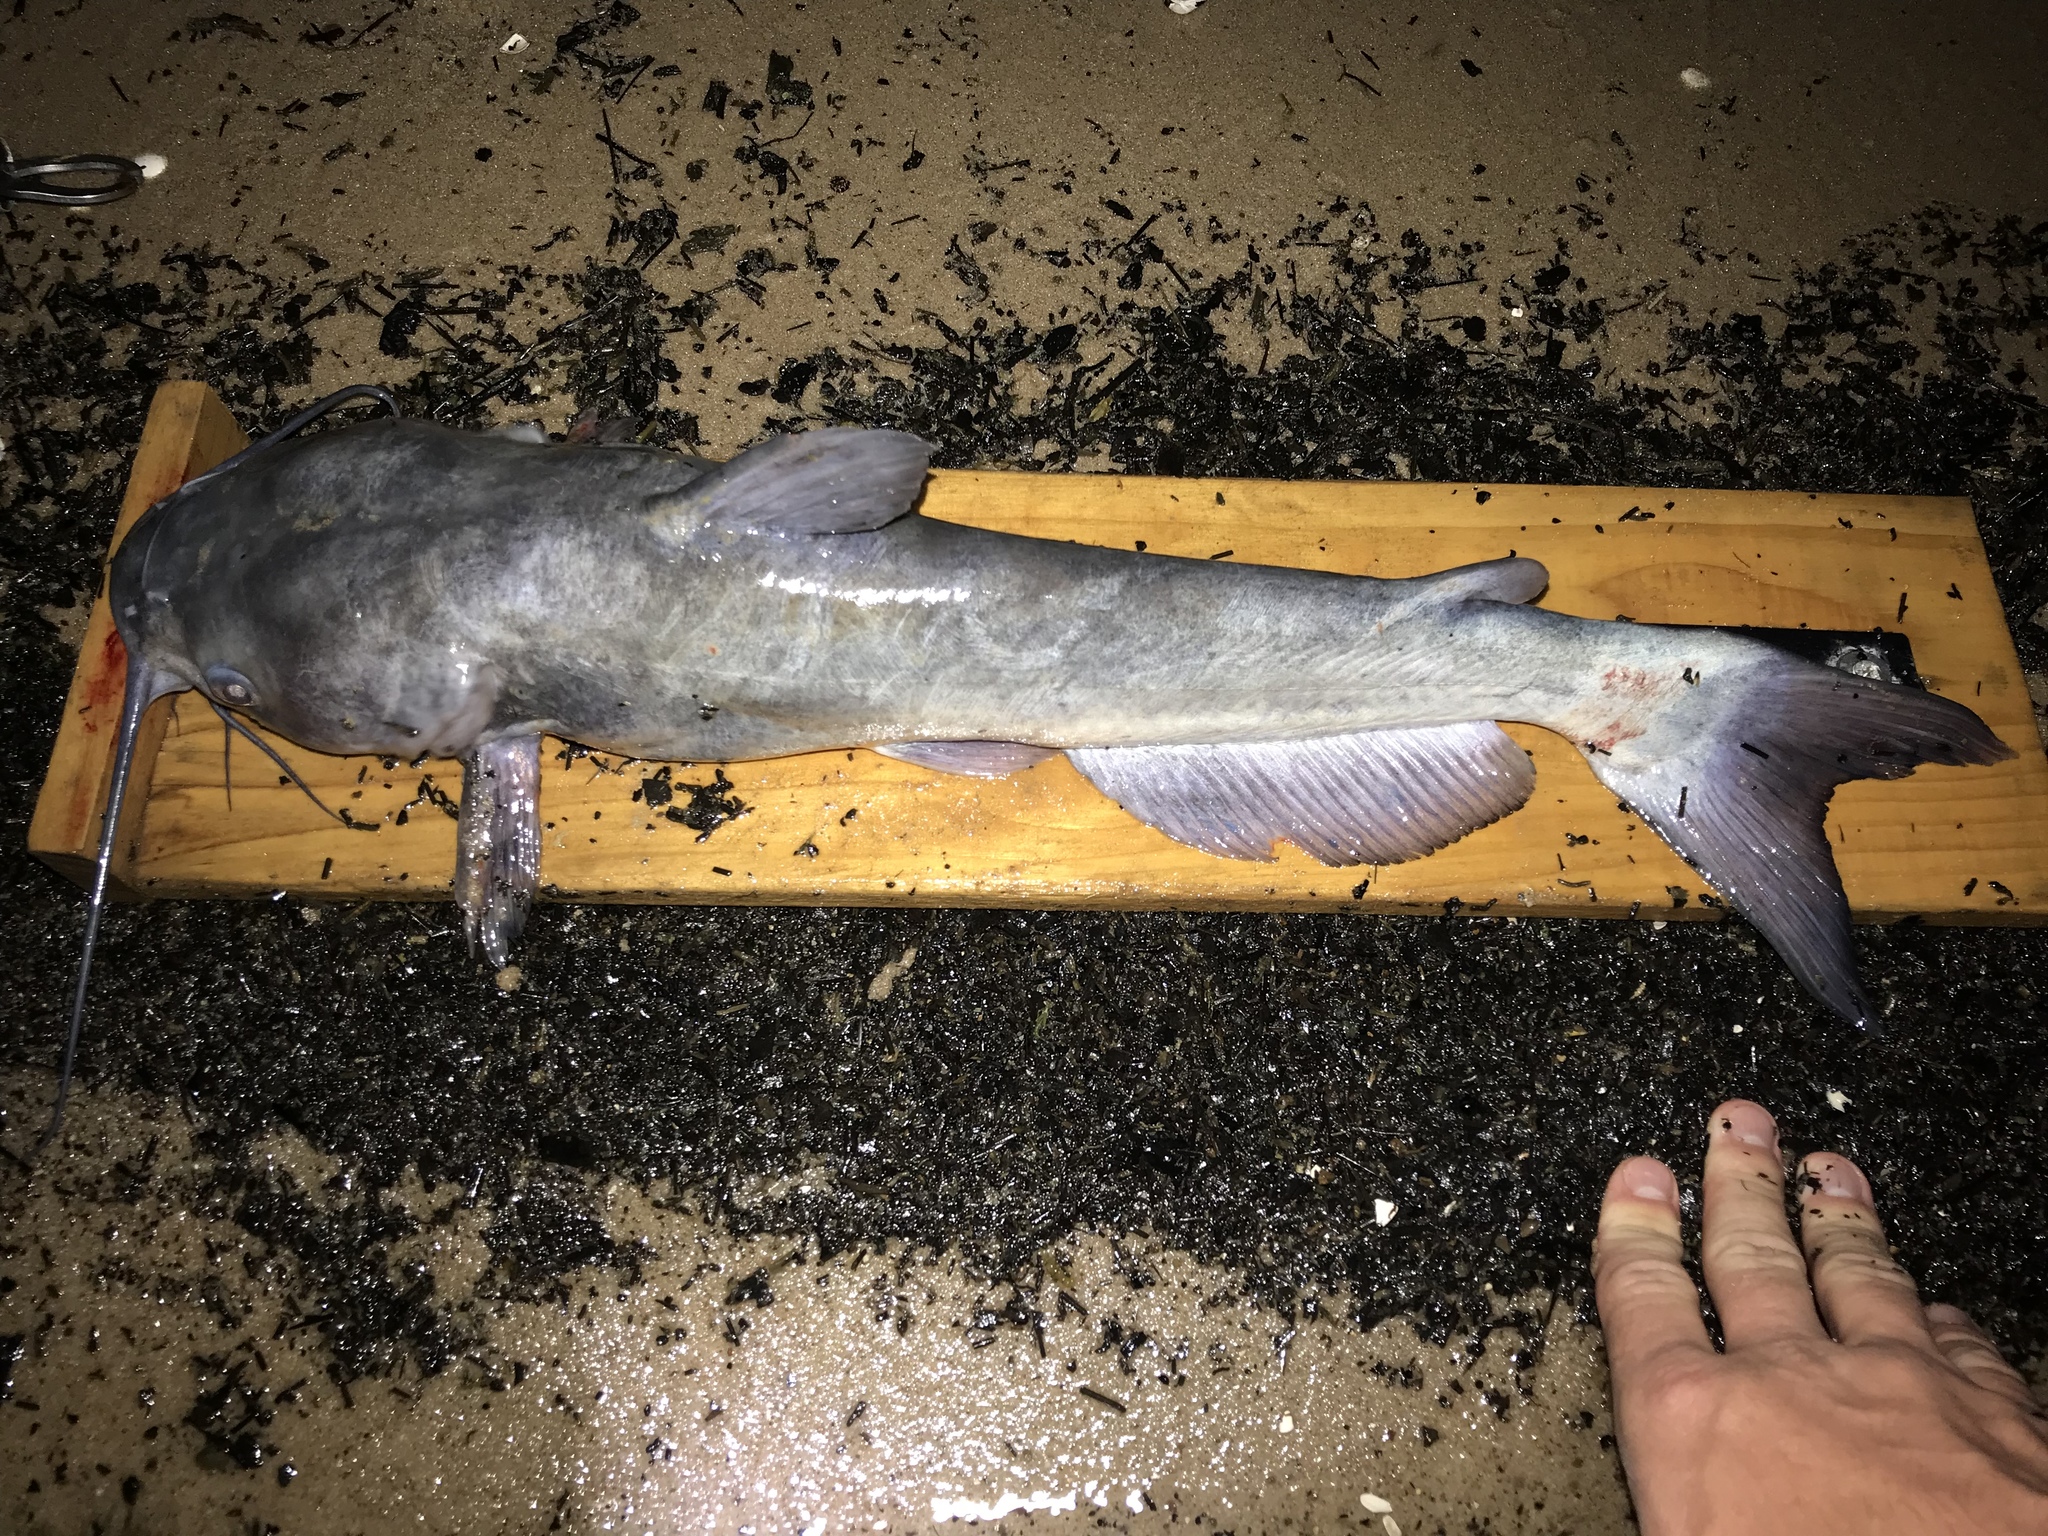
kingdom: Animalia
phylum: Chordata
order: Siluriformes
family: Ictaluridae
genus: Ictalurus
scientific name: Ictalurus punctatus
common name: Channel catfish
